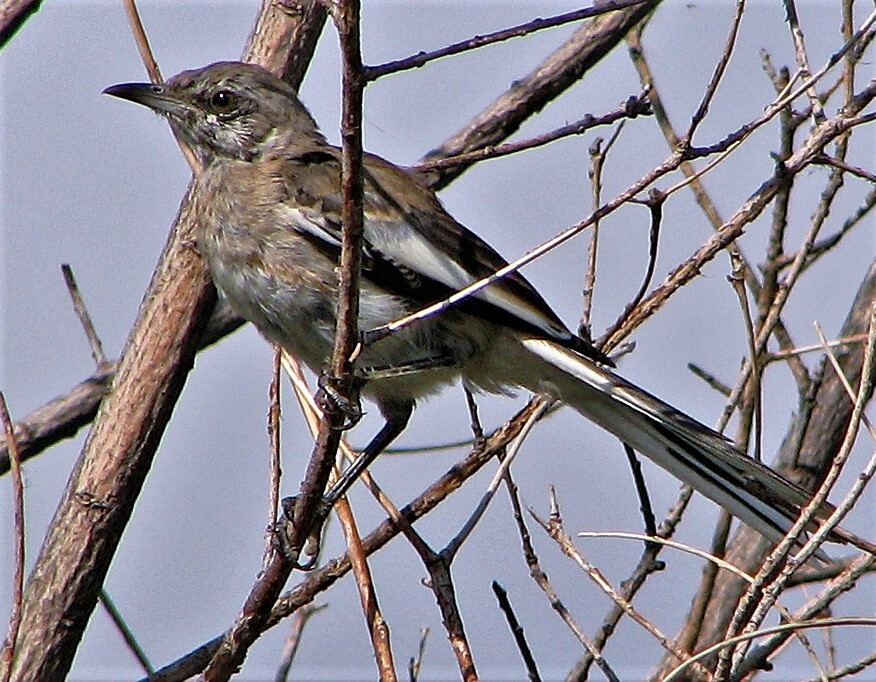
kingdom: Animalia
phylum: Chordata
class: Aves
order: Passeriformes
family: Mimidae
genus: Mimus
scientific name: Mimus triurus
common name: White-banded mockingbird
